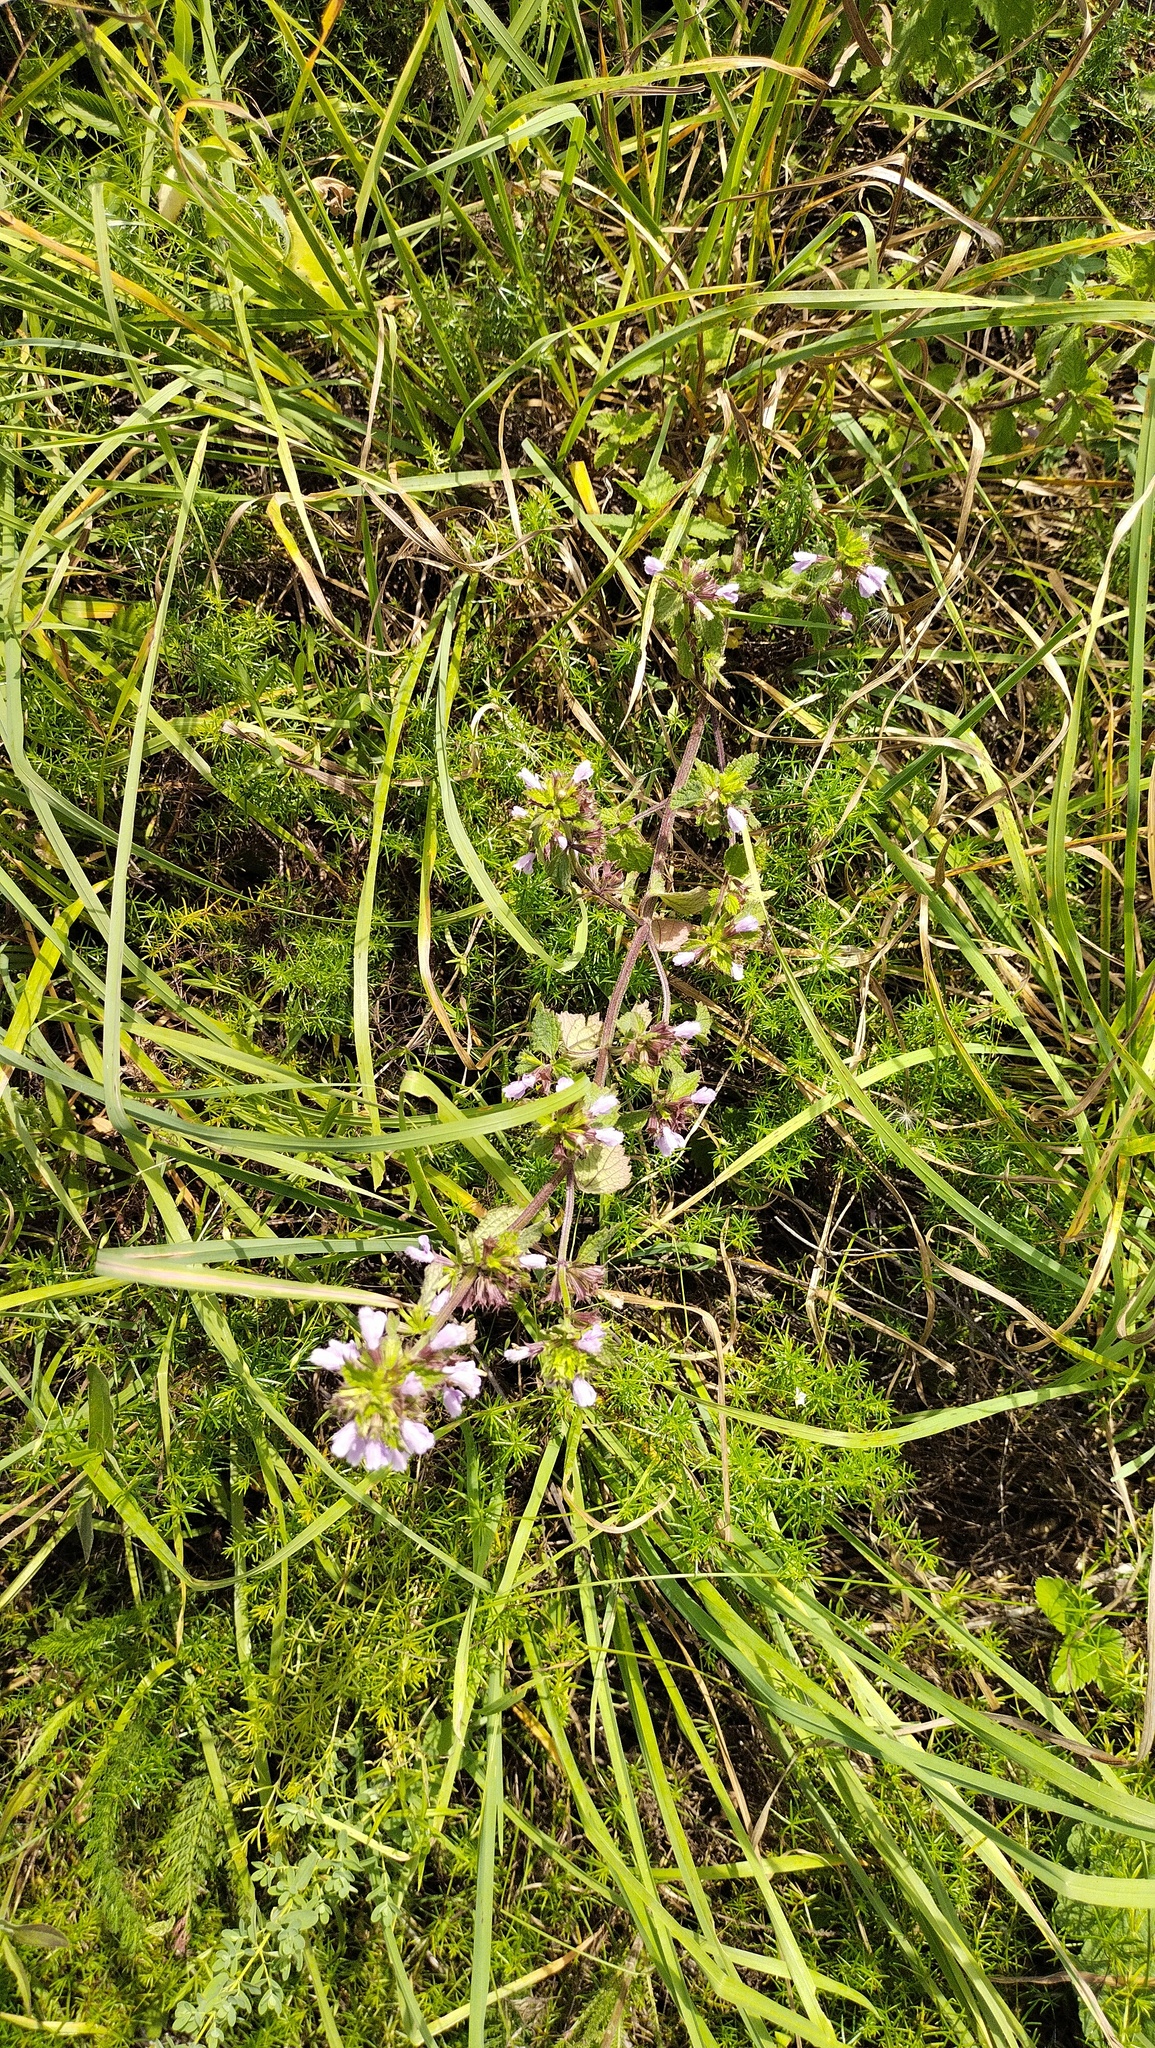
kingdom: Plantae
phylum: Tracheophyta
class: Magnoliopsida
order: Lamiales
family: Lamiaceae
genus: Phlomoides
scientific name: Phlomoides tuberosa
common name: Tuberous jerusalem sage
